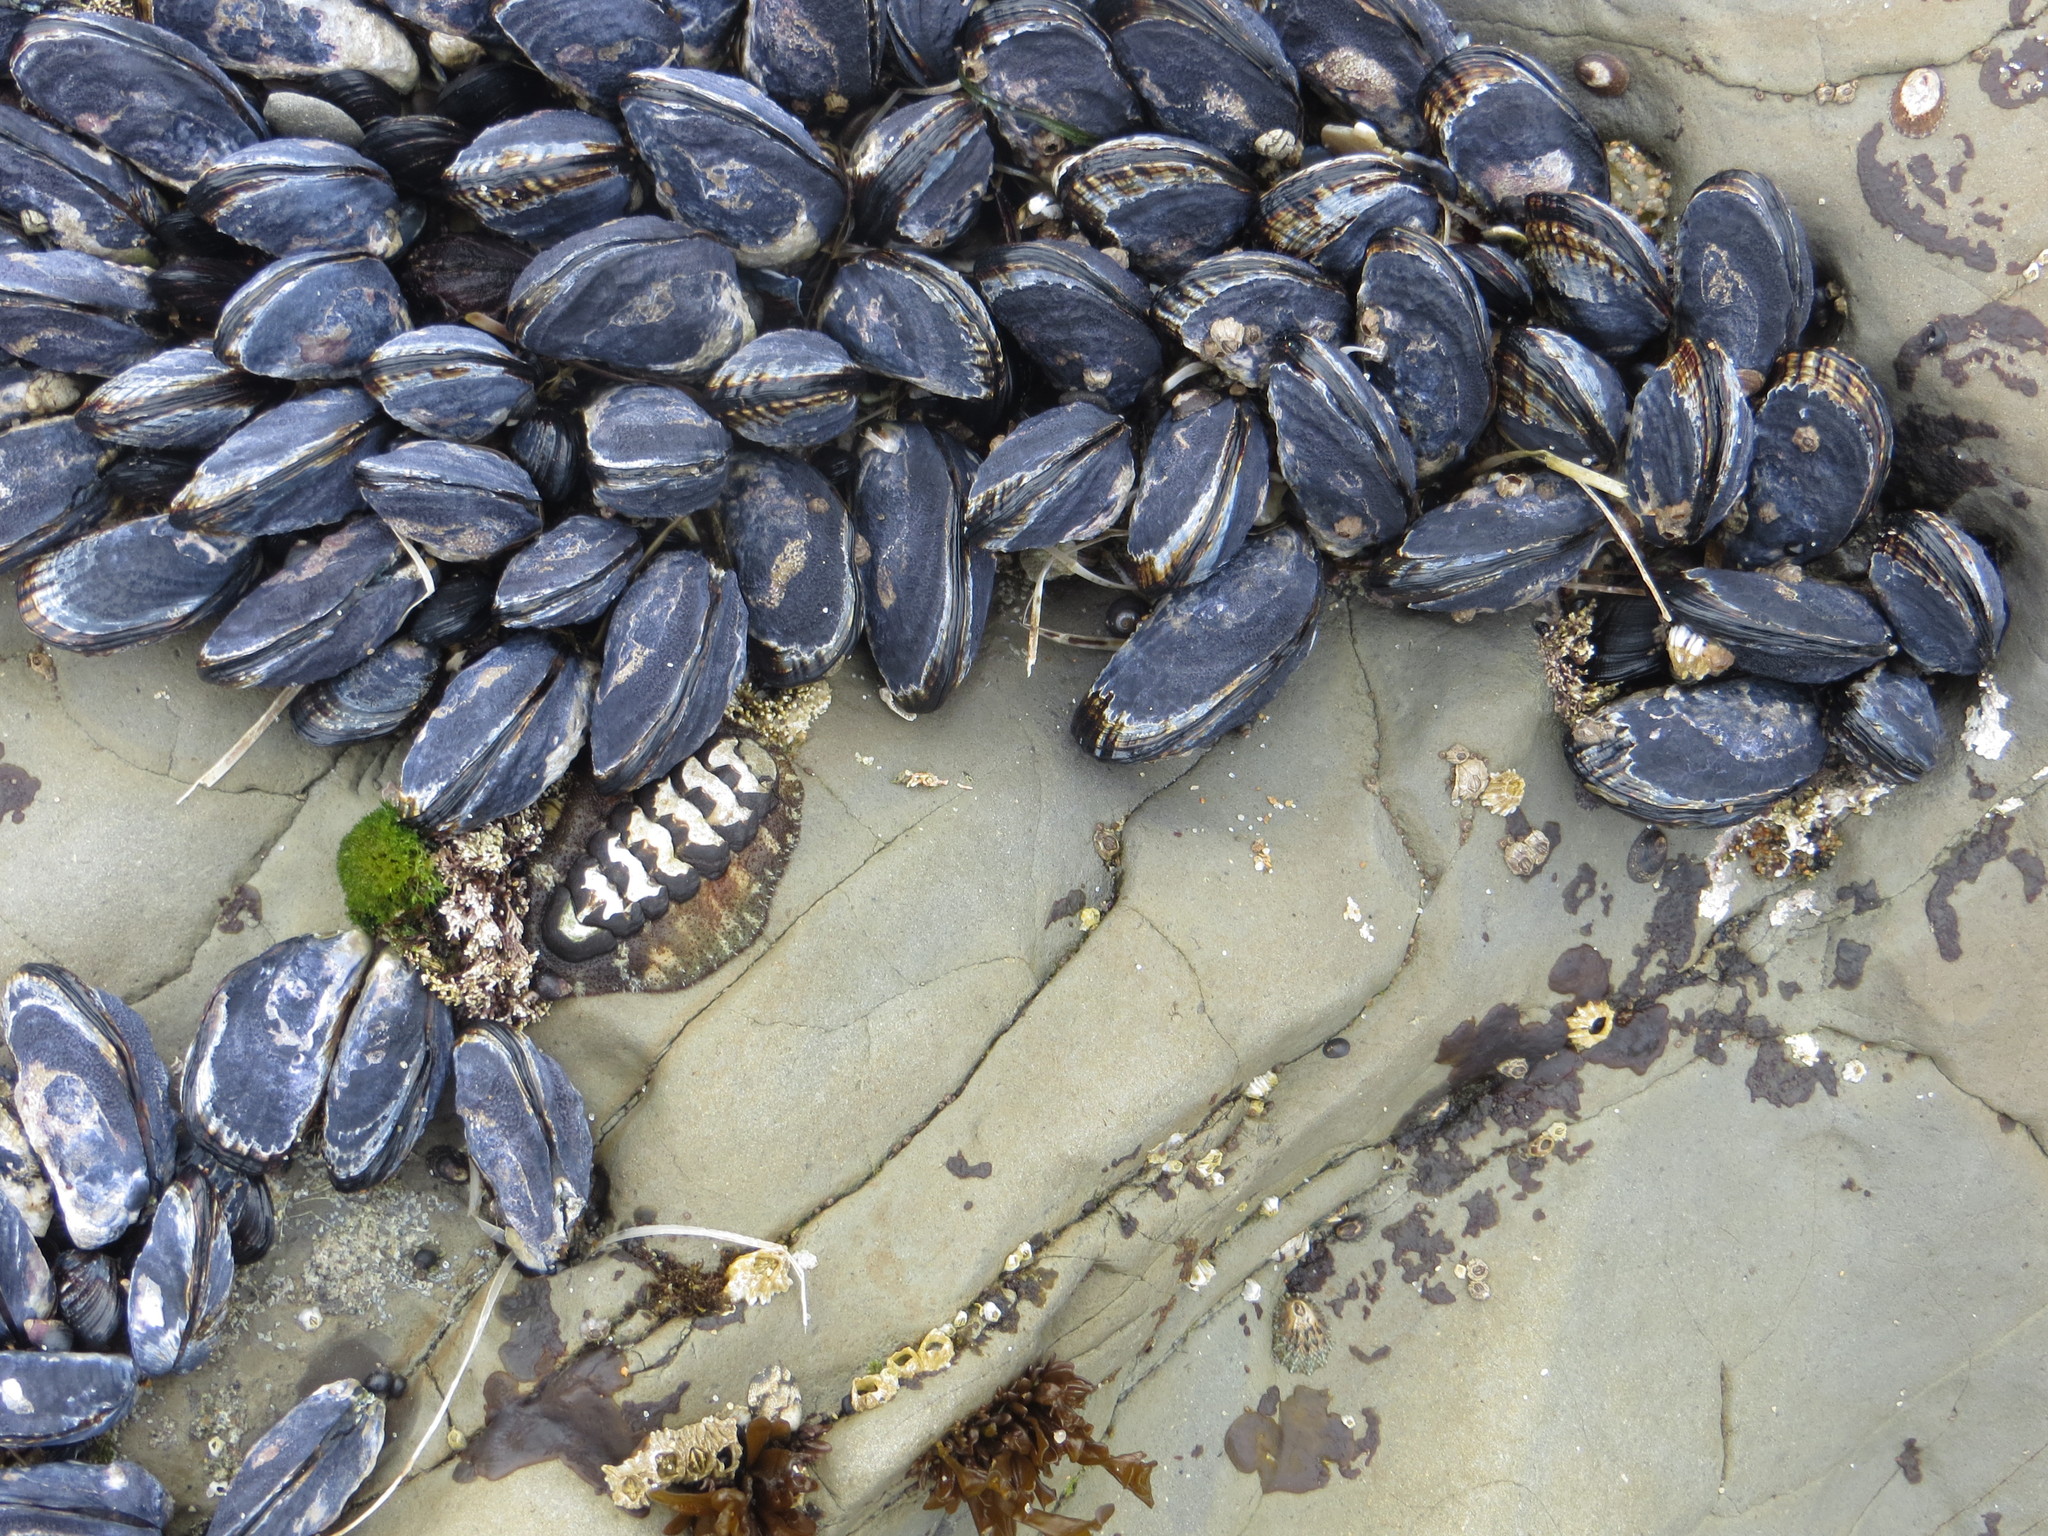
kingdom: Animalia
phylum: Mollusca
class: Bivalvia
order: Mytilida
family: Mytilidae
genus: Mytilus
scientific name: Mytilus californianus
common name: California mussel
